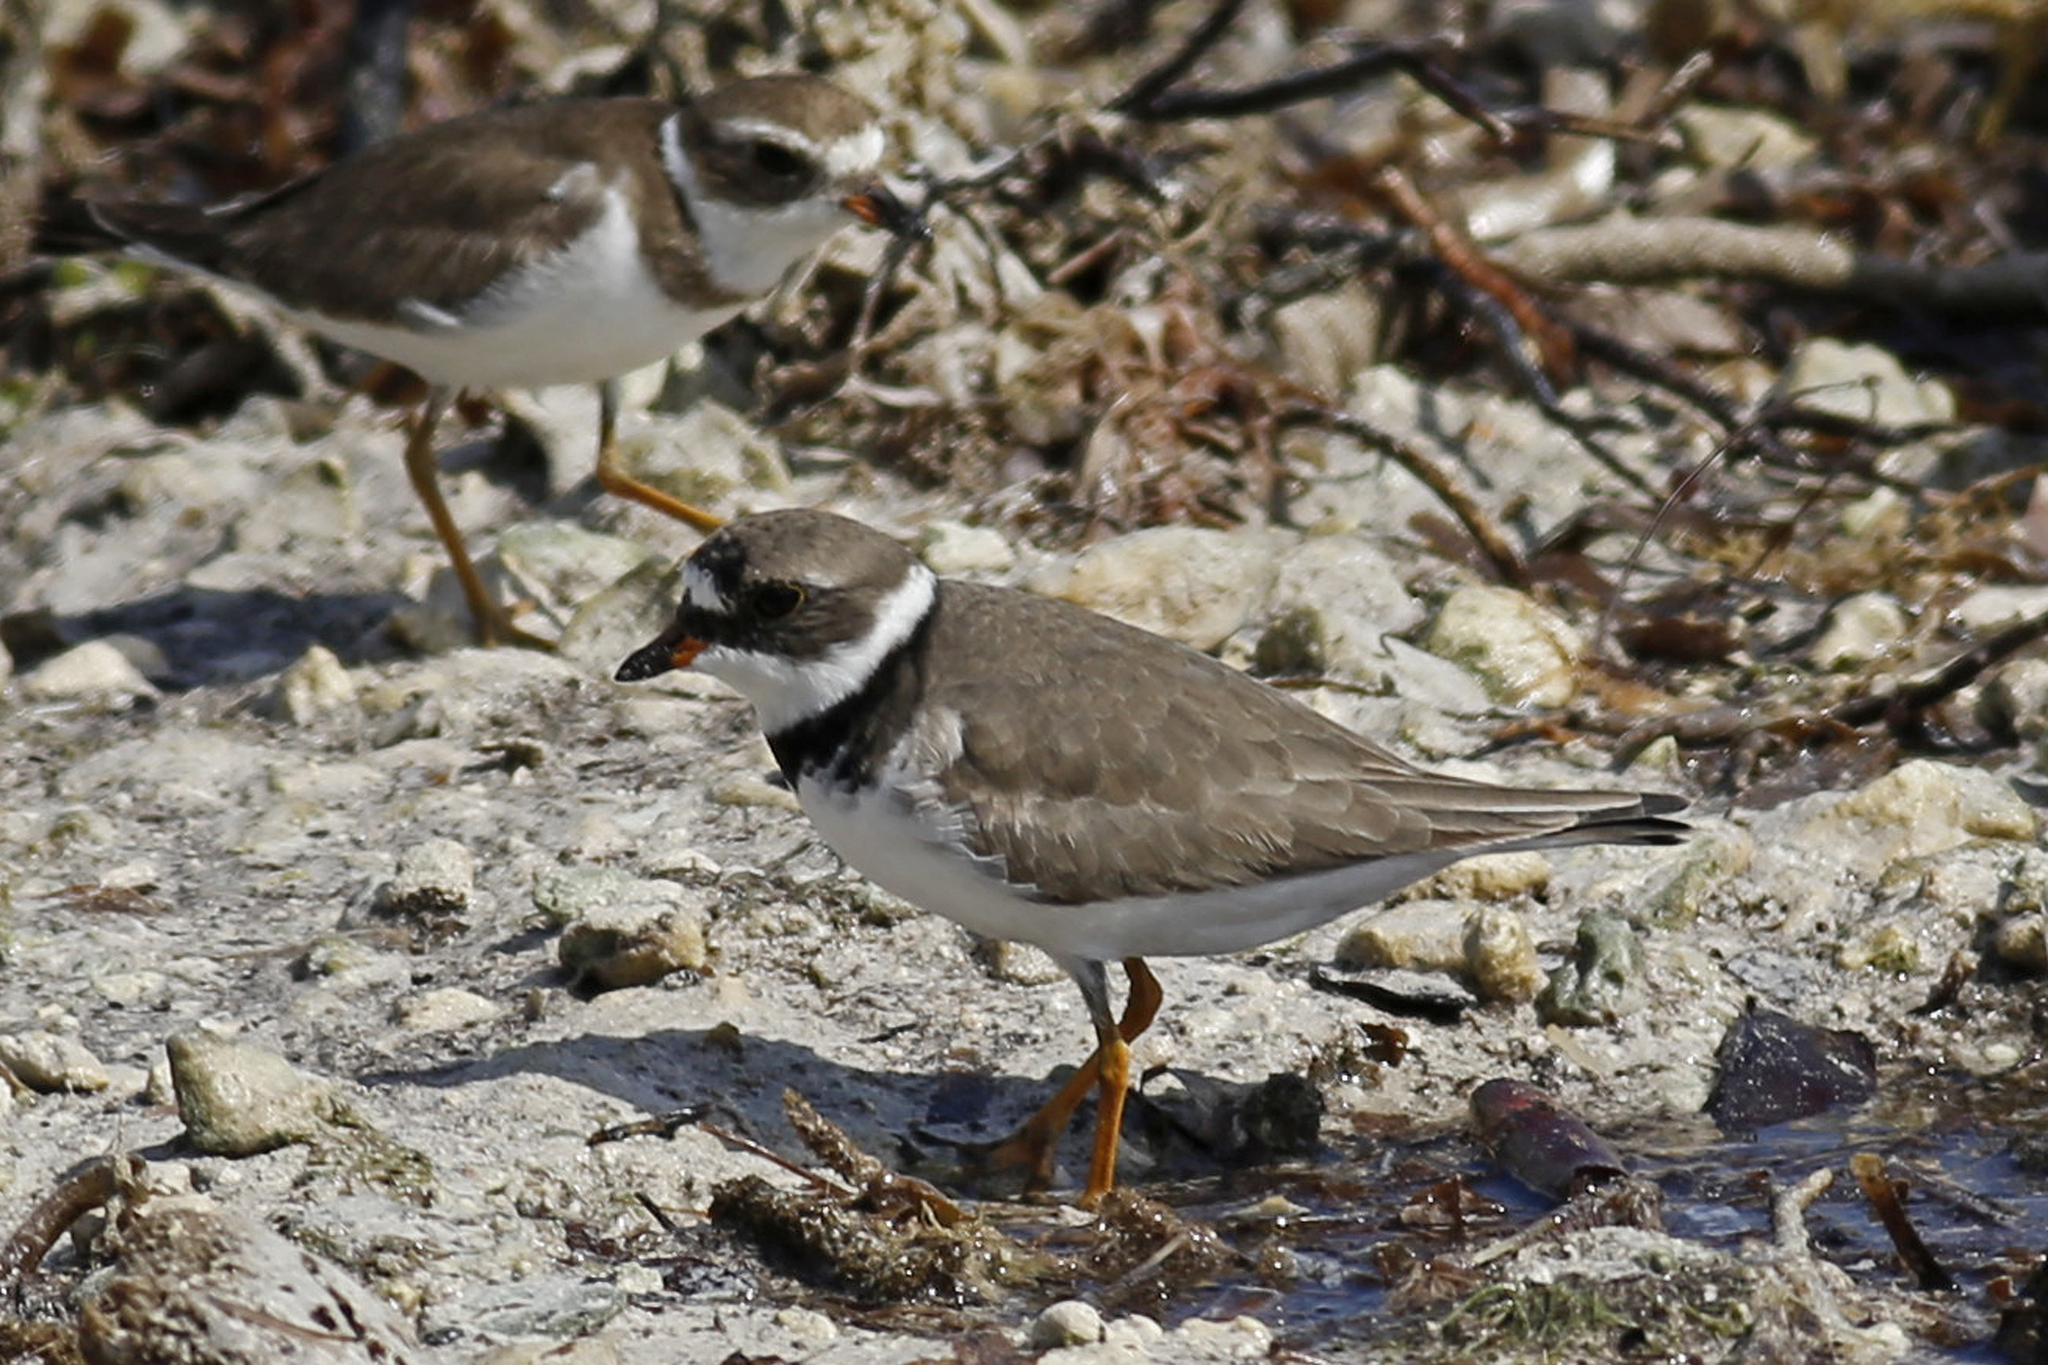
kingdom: Animalia
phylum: Chordata
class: Aves
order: Charadriiformes
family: Charadriidae
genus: Charadrius
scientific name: Charadrius semipalmatus
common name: Semipalmated plover
